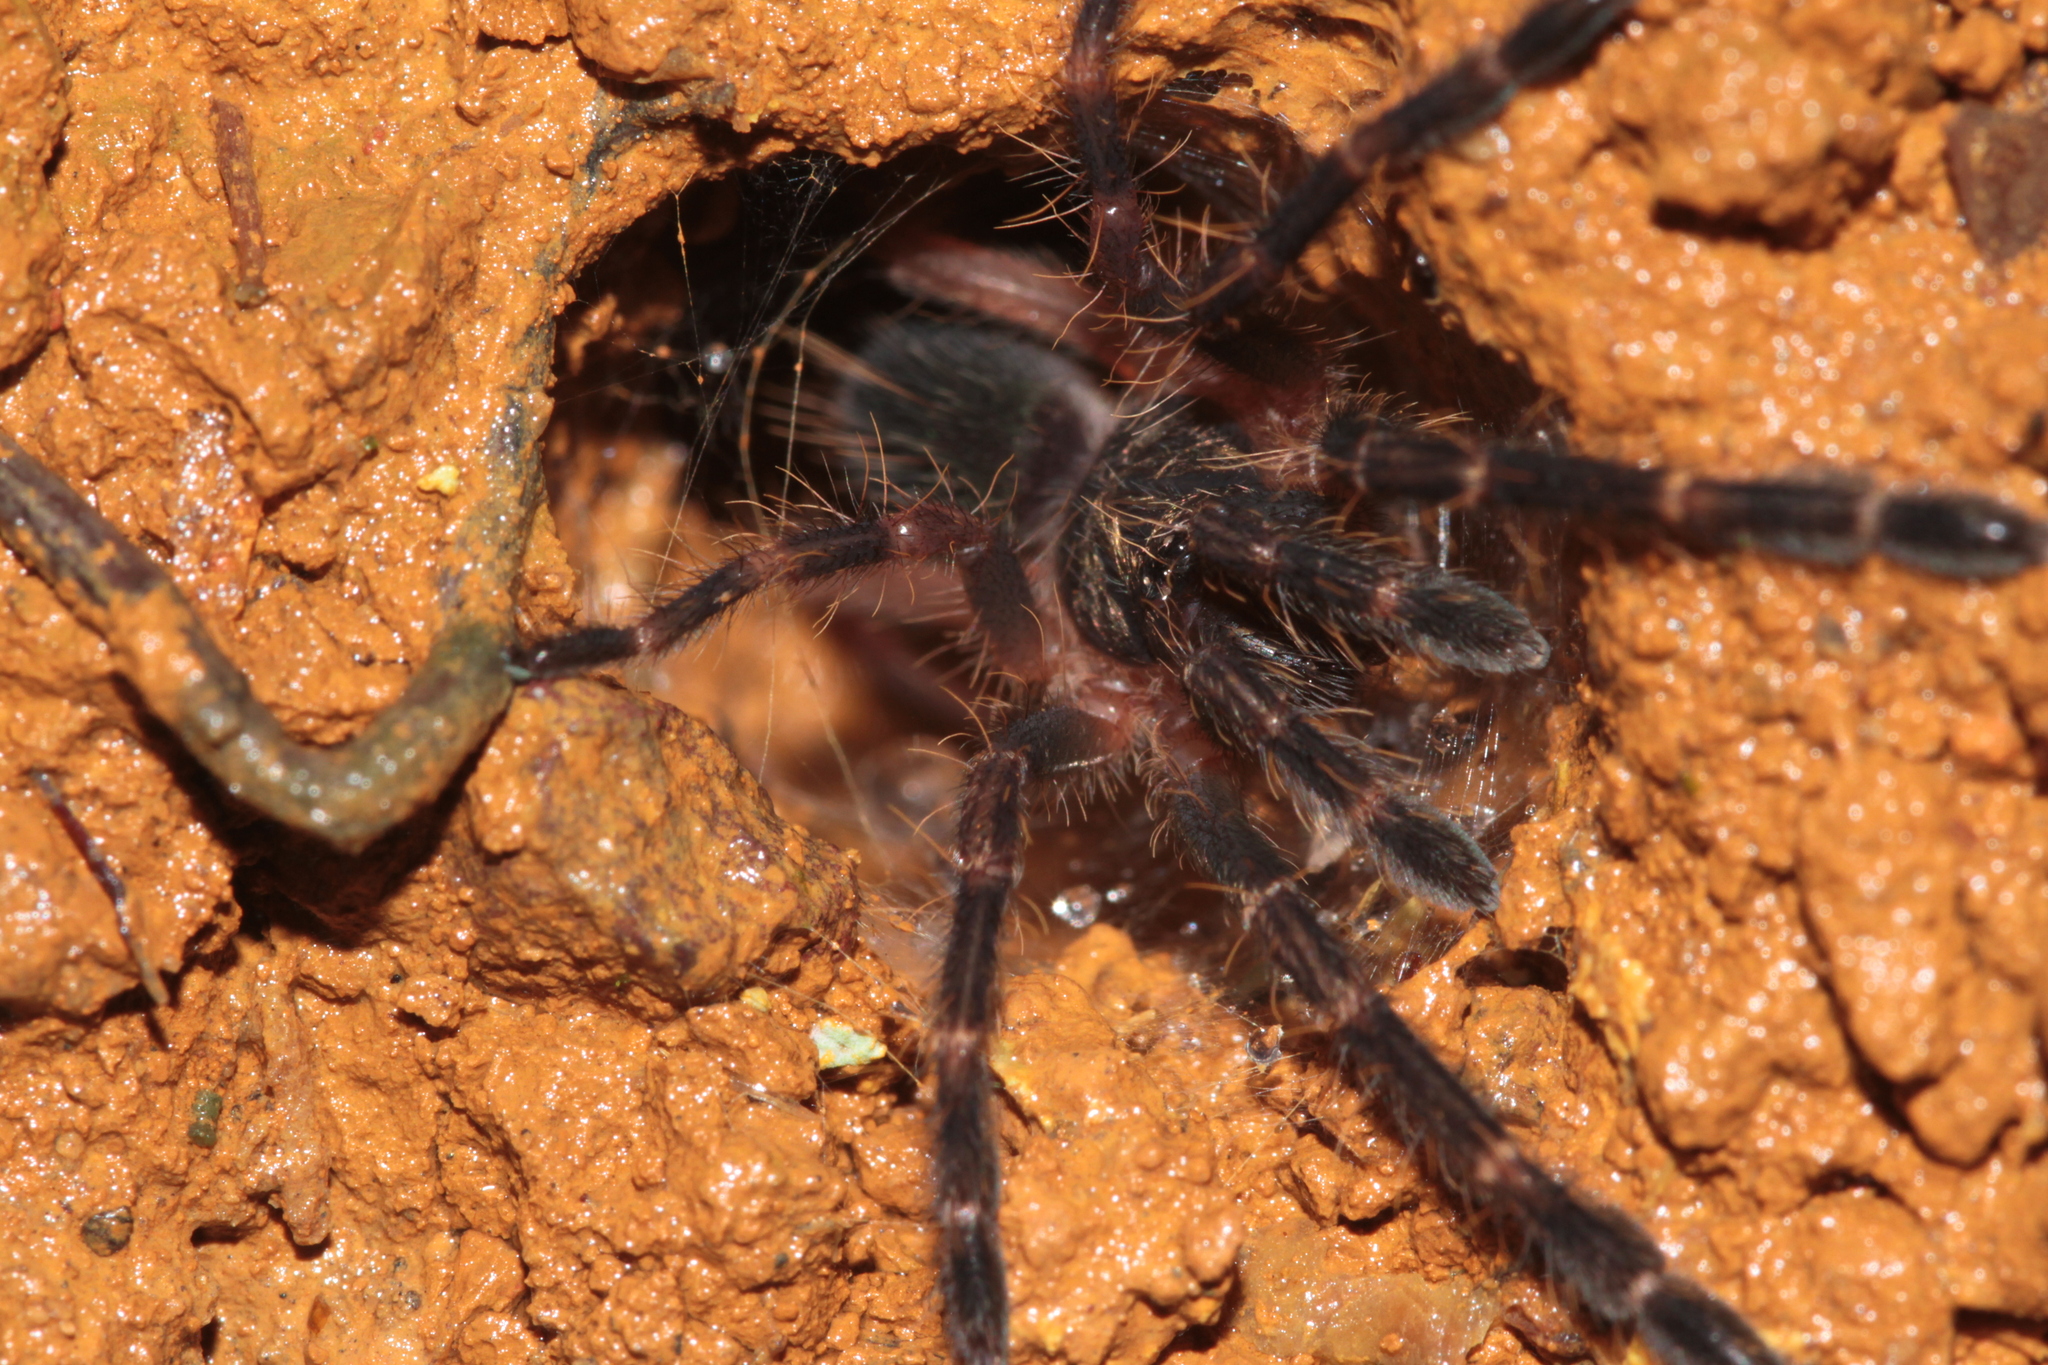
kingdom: Animalia
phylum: Arthropoda
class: Arachnida
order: Araneae
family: Theraphosidae
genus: Ephebopus
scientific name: Ephebopus rufescens
